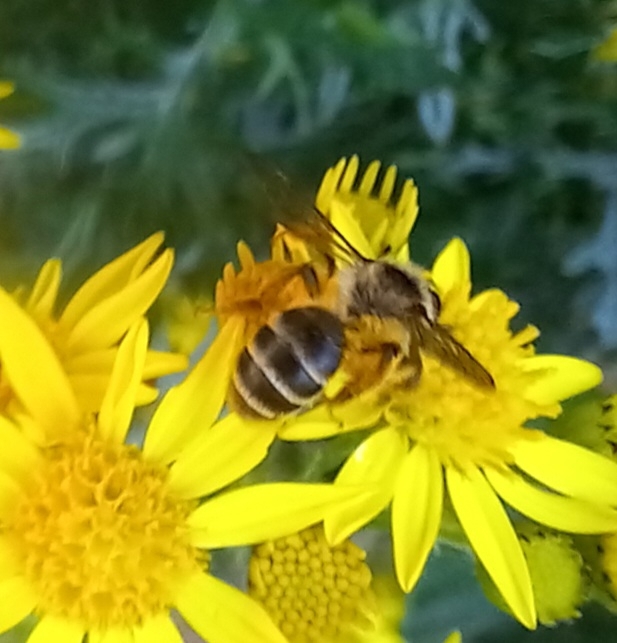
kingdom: Animalia
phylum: Arthropoda
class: Insecta
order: Hymenoptera
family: Andrenidae
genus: Andrena
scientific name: Andrena denticulata
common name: Grey-banded mining bee
